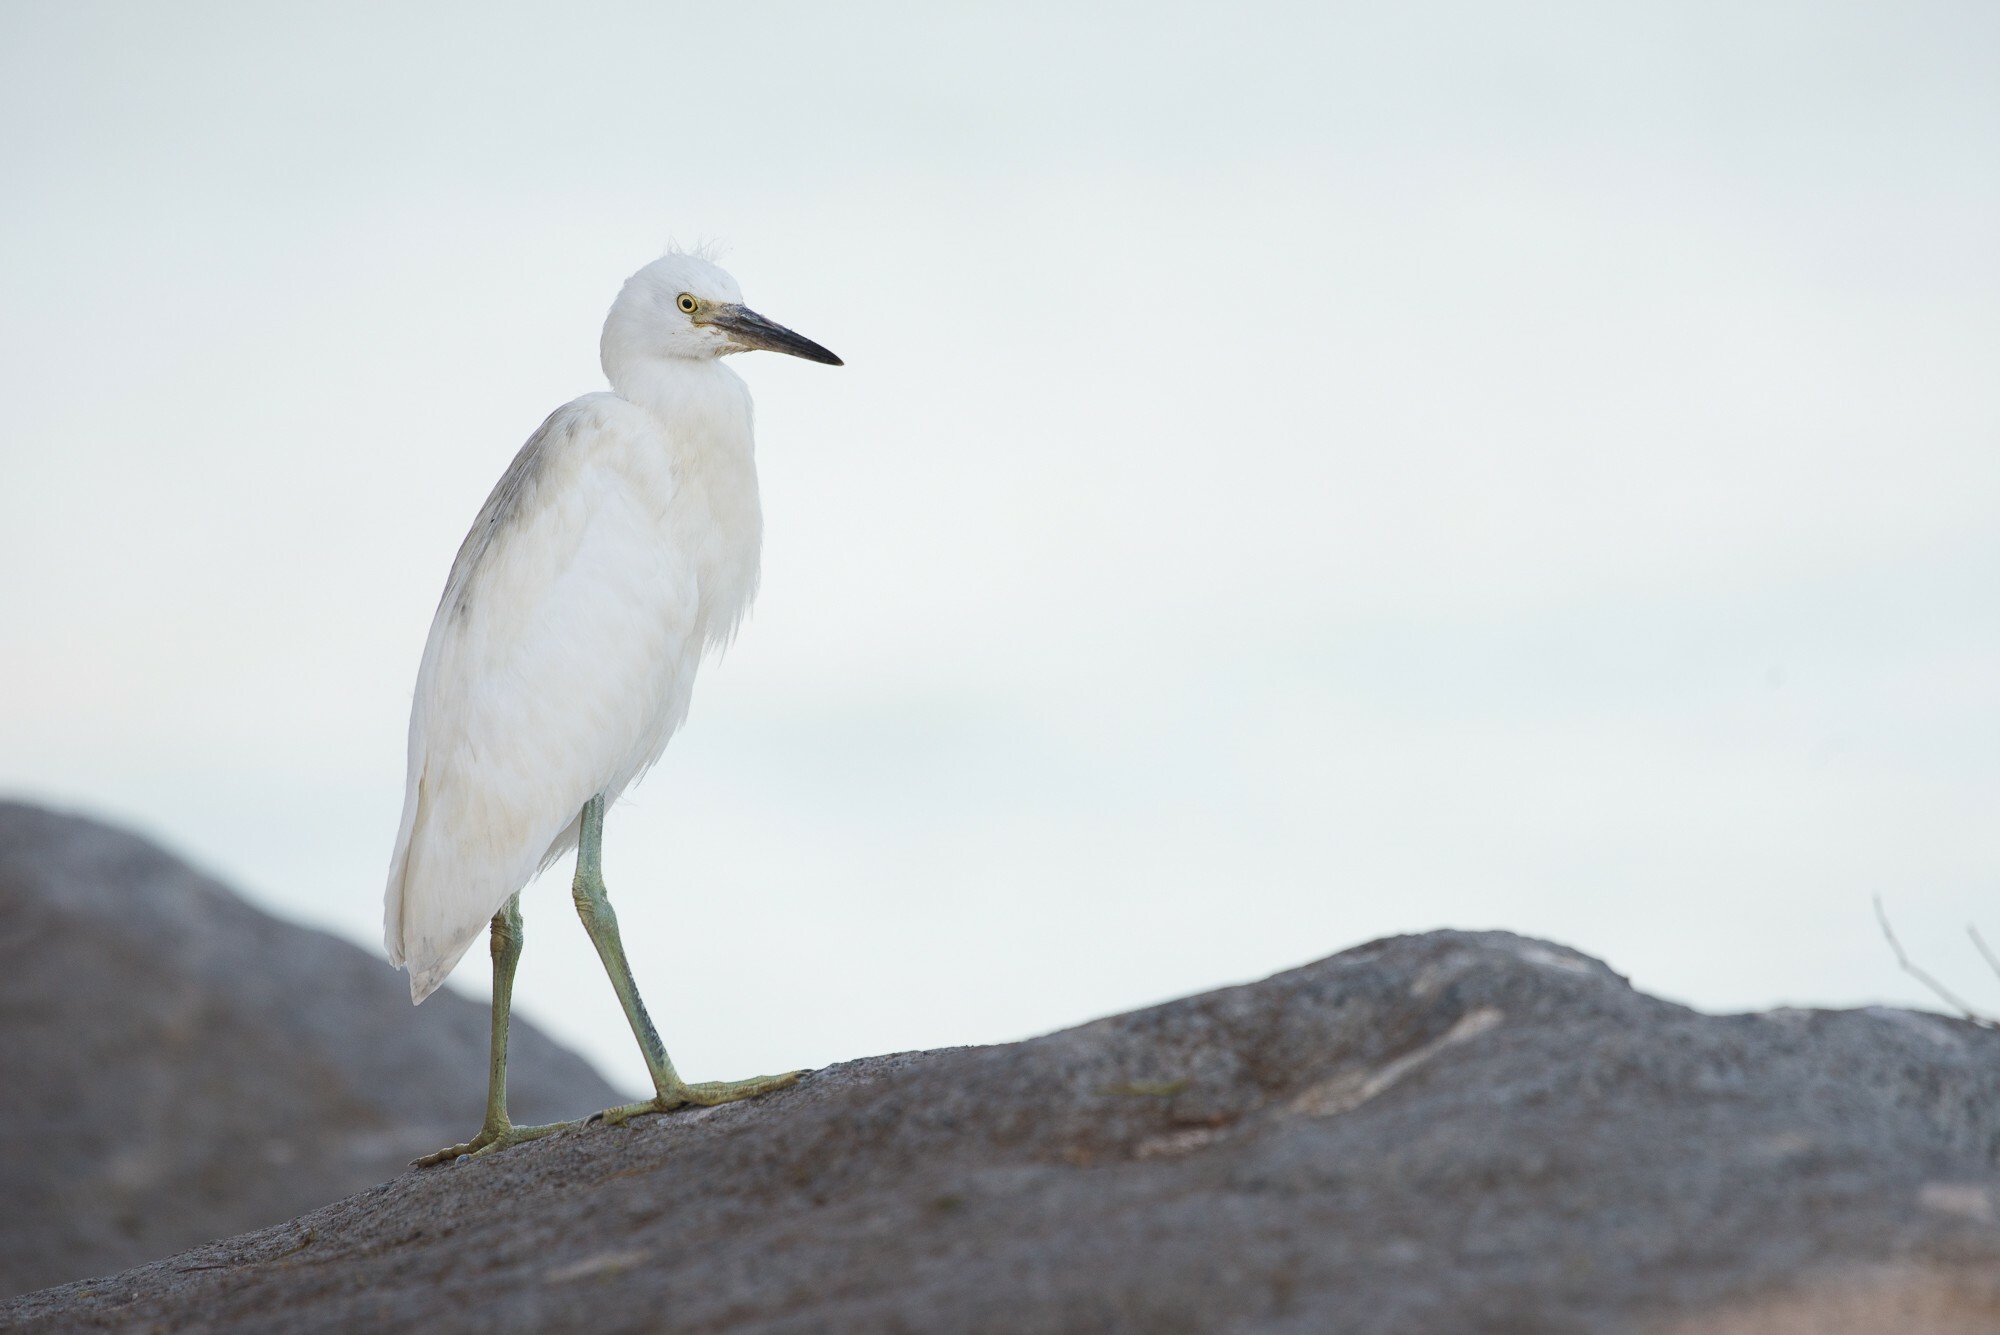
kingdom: Animalia
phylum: Chordata
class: Aves
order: Pelecaniformes
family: Ardeidae
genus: Egretta
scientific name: Egretta thula
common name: Snowy egret
